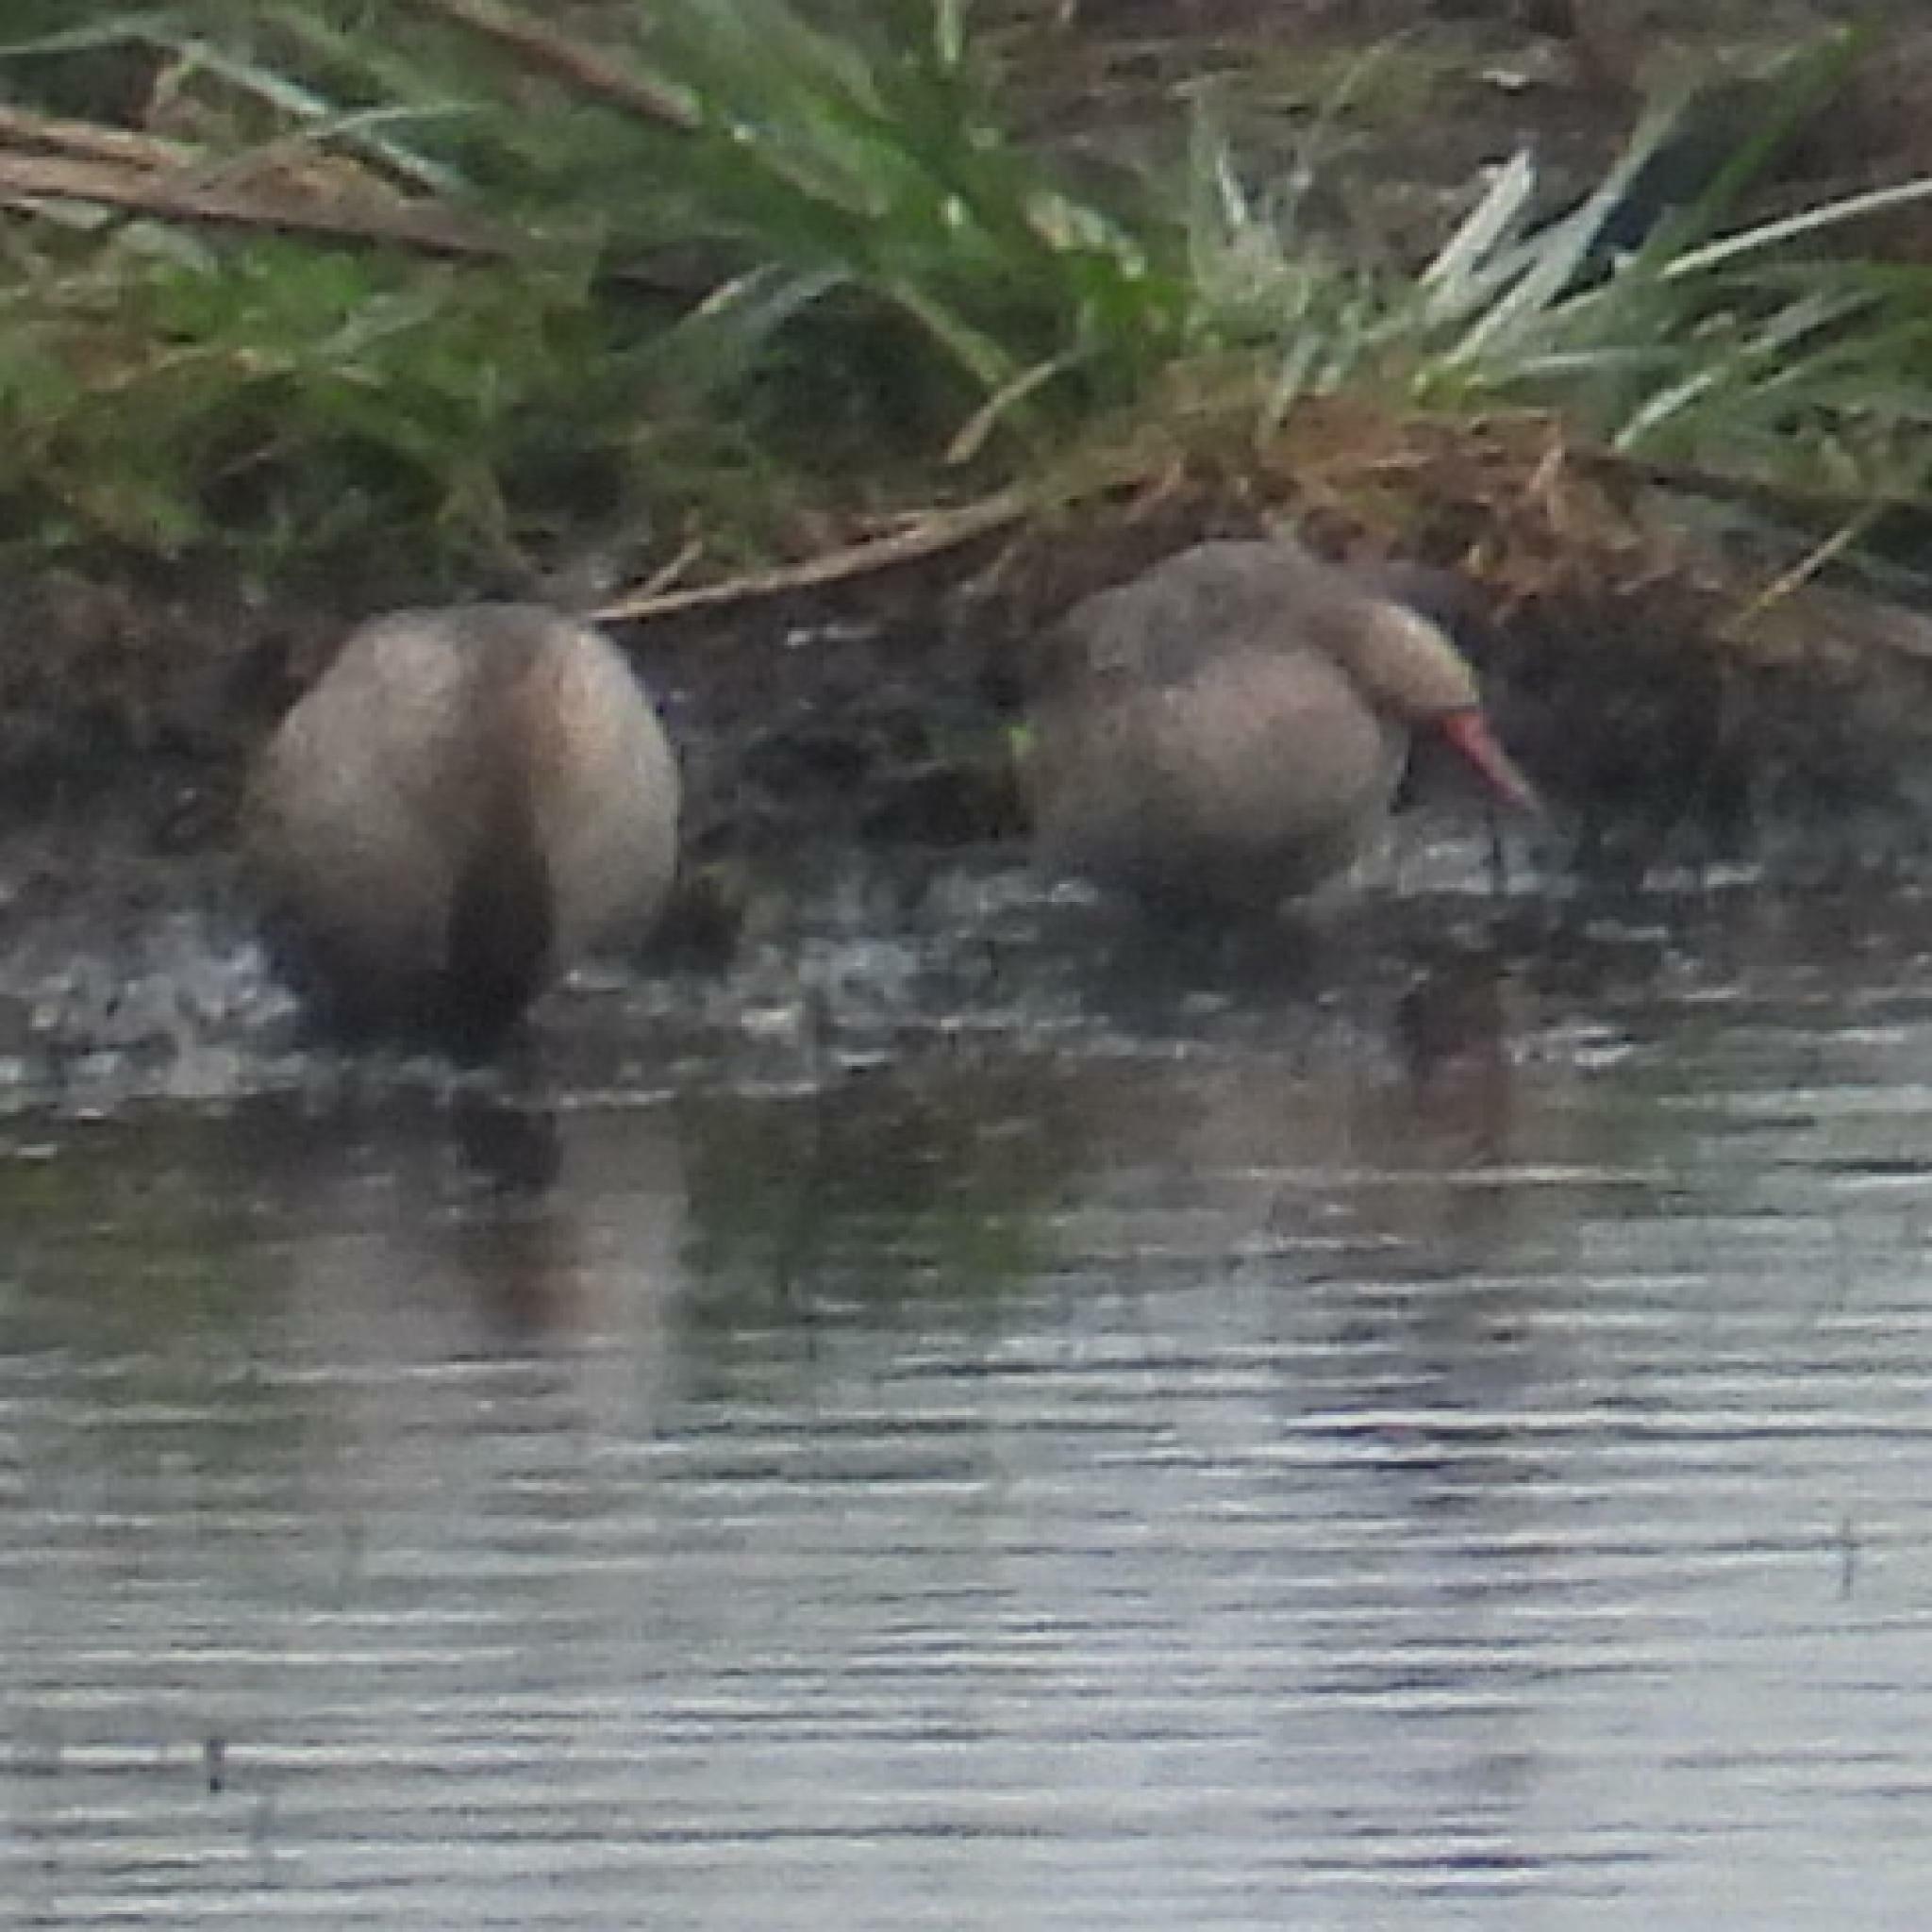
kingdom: Animalia
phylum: Chordata
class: Aves
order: Anseriformes
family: Anatidae
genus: Anas
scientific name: Anas erythrorhyncha
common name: Red-billed teal
